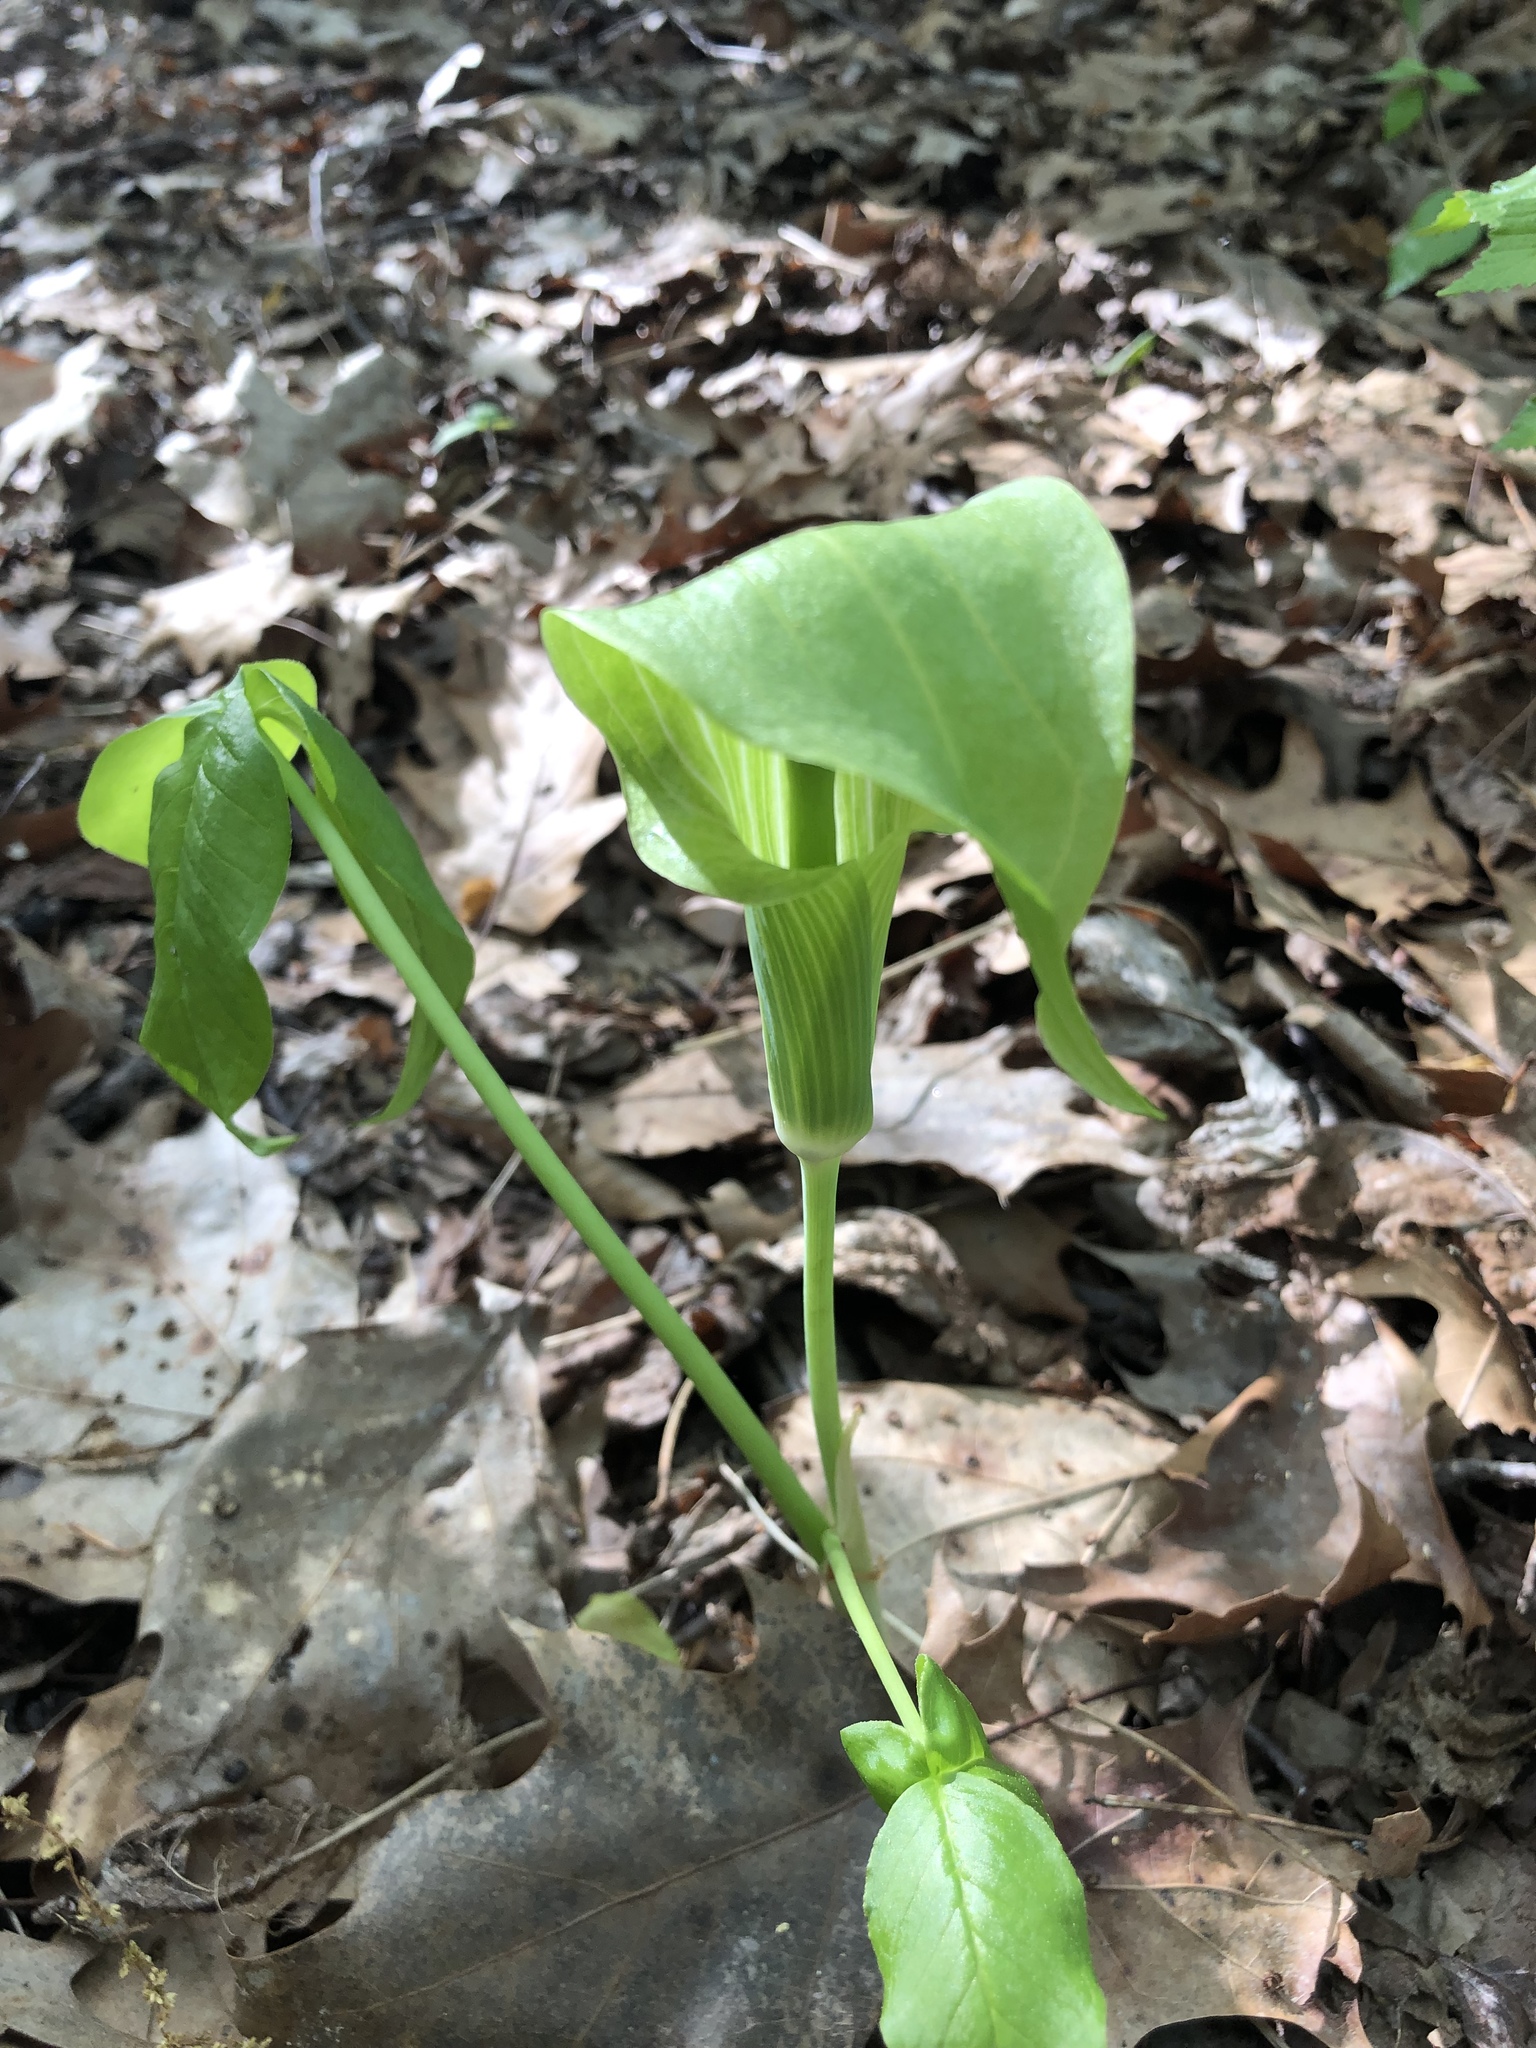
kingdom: Plantae
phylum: Tracheophyta
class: Liliopsida
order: Alismatales
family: Araceae
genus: Arisaema
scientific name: Arisaema triphyllum
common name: Jack-in-the-pulpit
